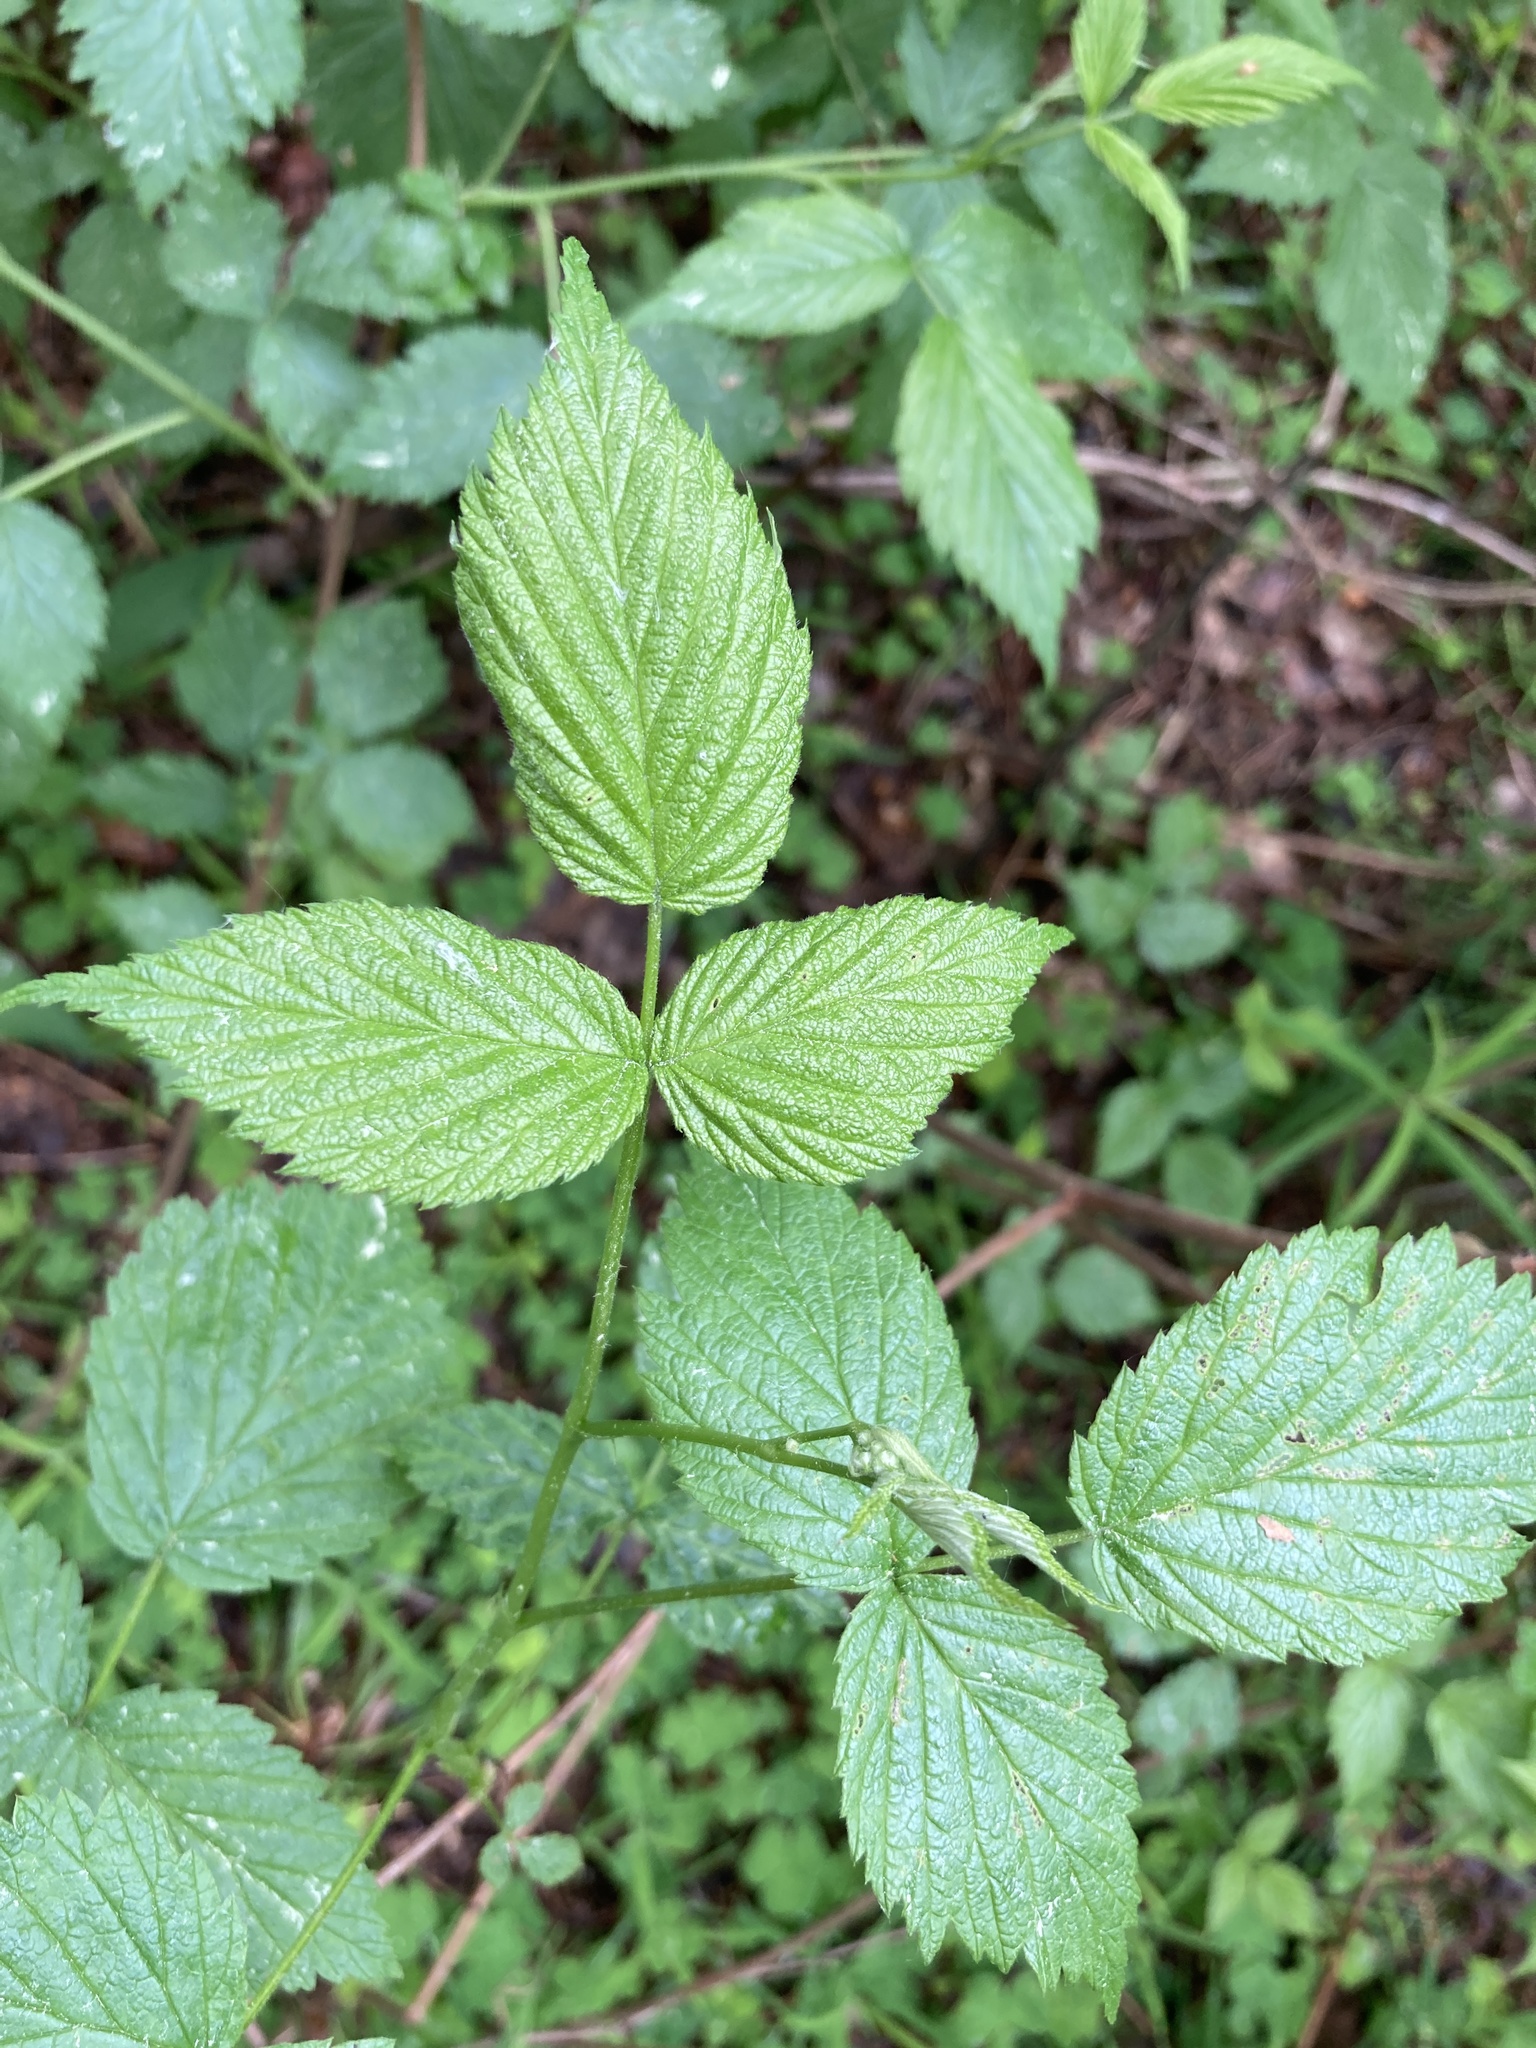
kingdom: Plantae
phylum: Tracheophyta
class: Magnoliopsida
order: Rosales
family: Rosaceae
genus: Rubus
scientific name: Rubus idaeus
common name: Raspberry
